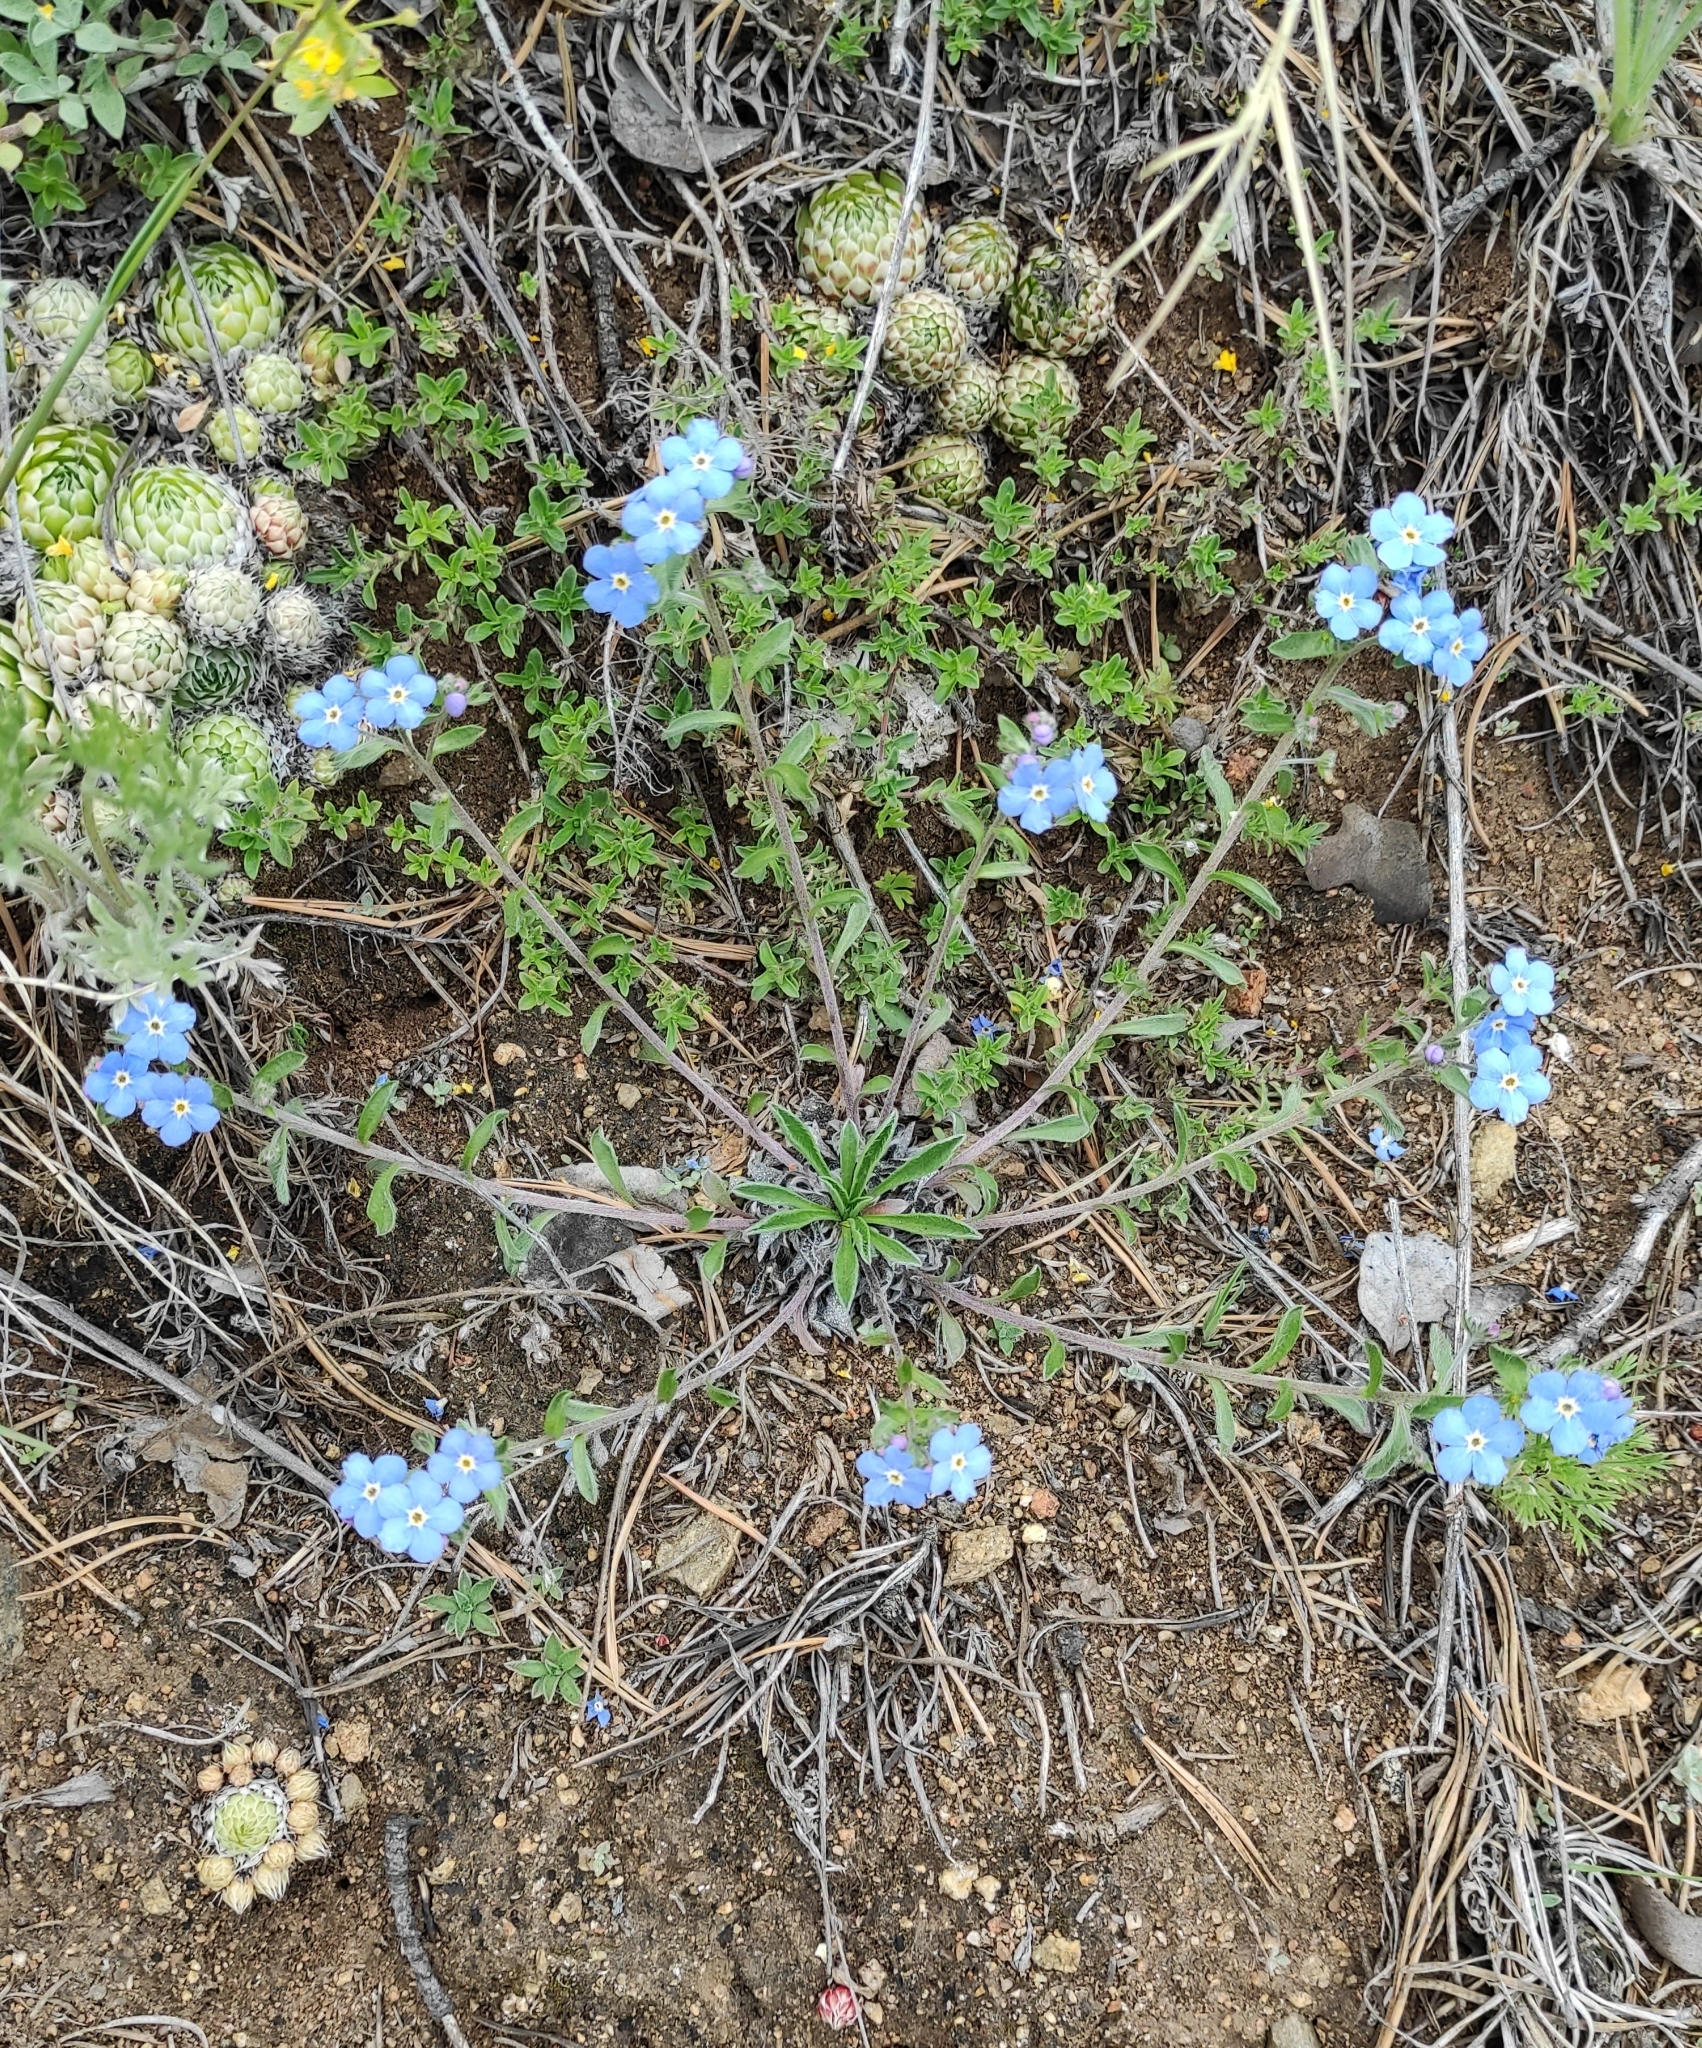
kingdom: Plantae
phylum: Tracheophyta
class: Magnoliopsida
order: Boraginales
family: Boraginaceae
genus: Eritrichium
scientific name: Eritrichium rupestre
